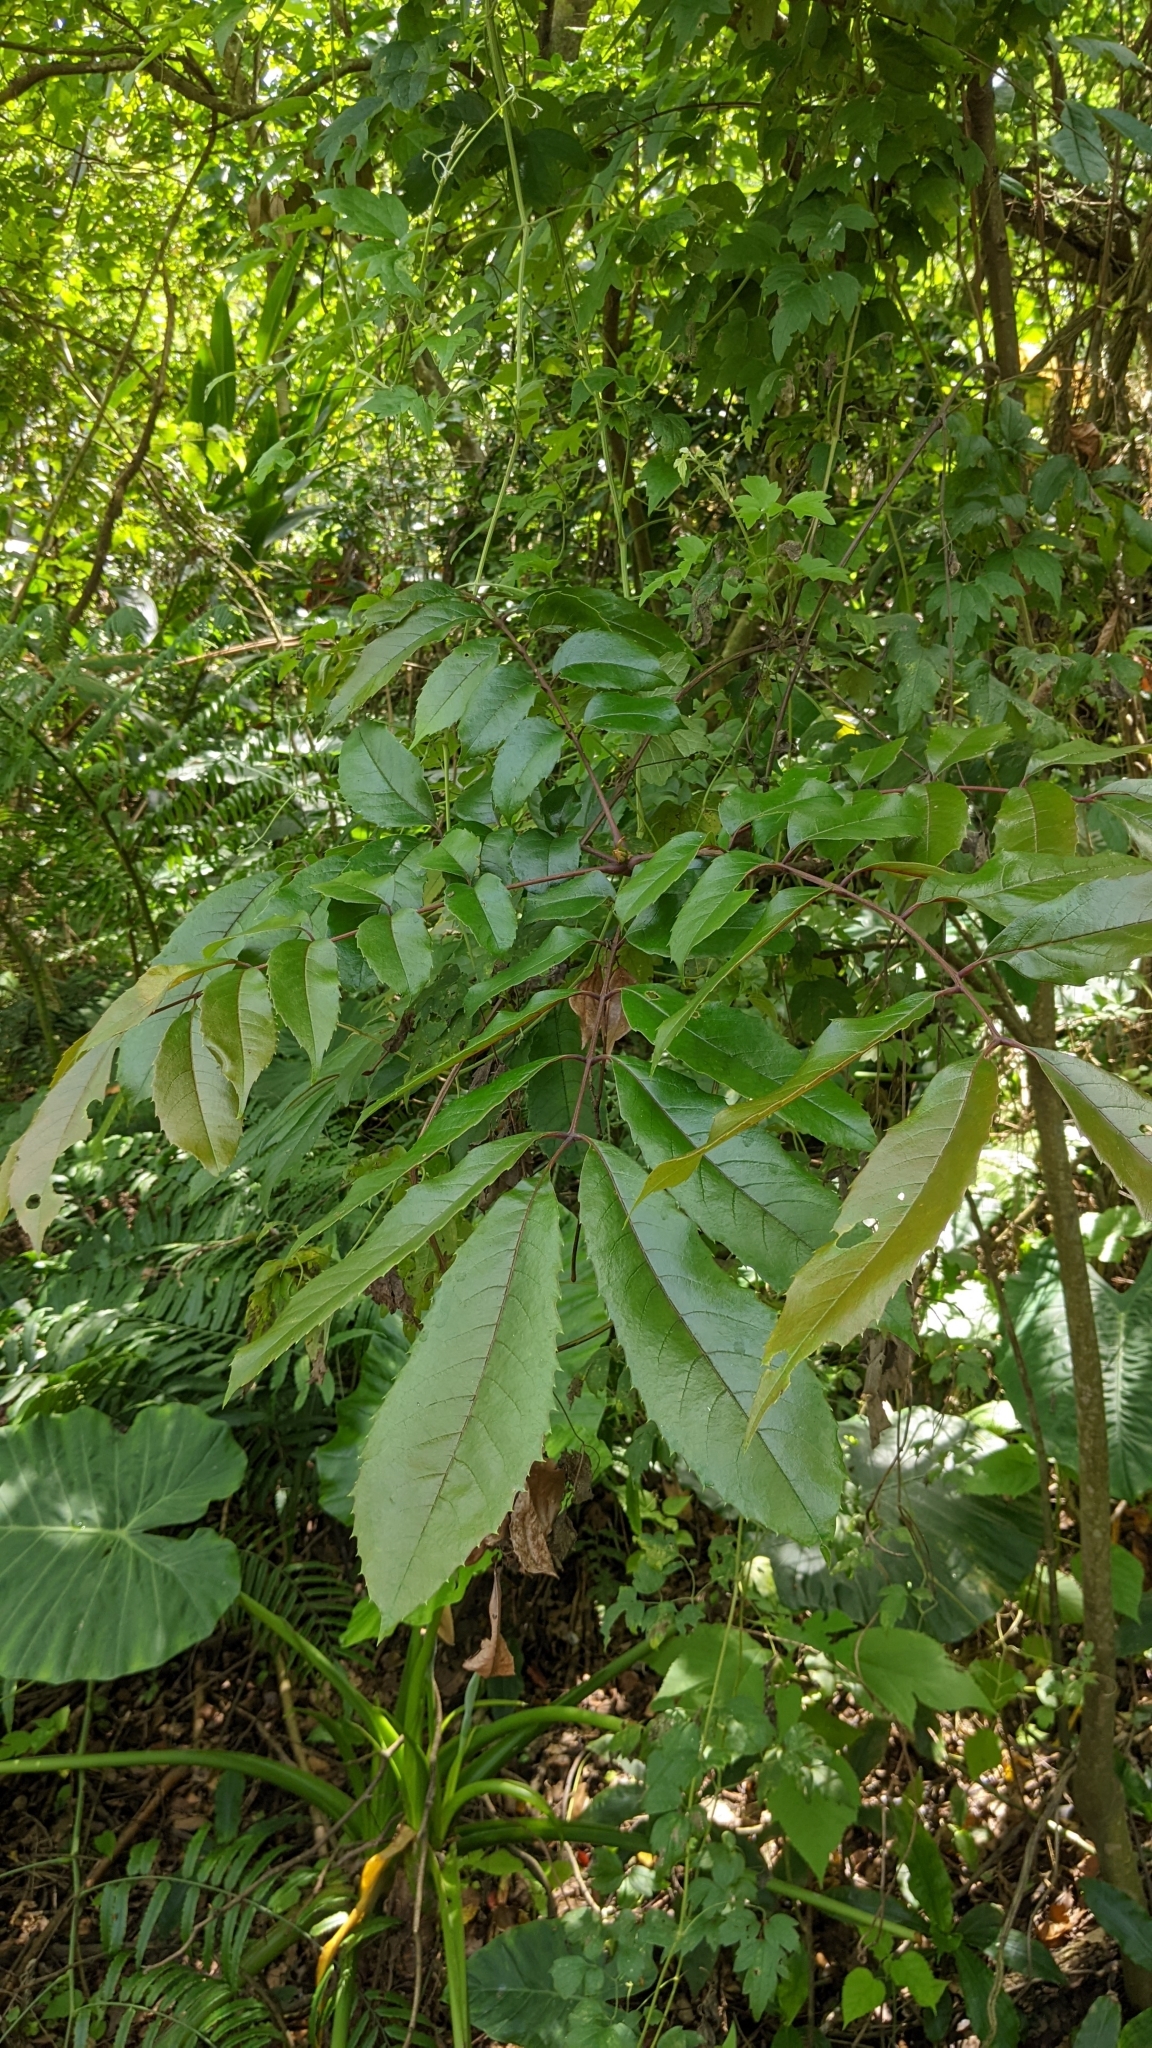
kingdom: Plantae
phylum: Tracheophyta
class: Magnoliopsida
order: Proteales
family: Sabiaceae
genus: Meliosma
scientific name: Meliosma rhoifolia
